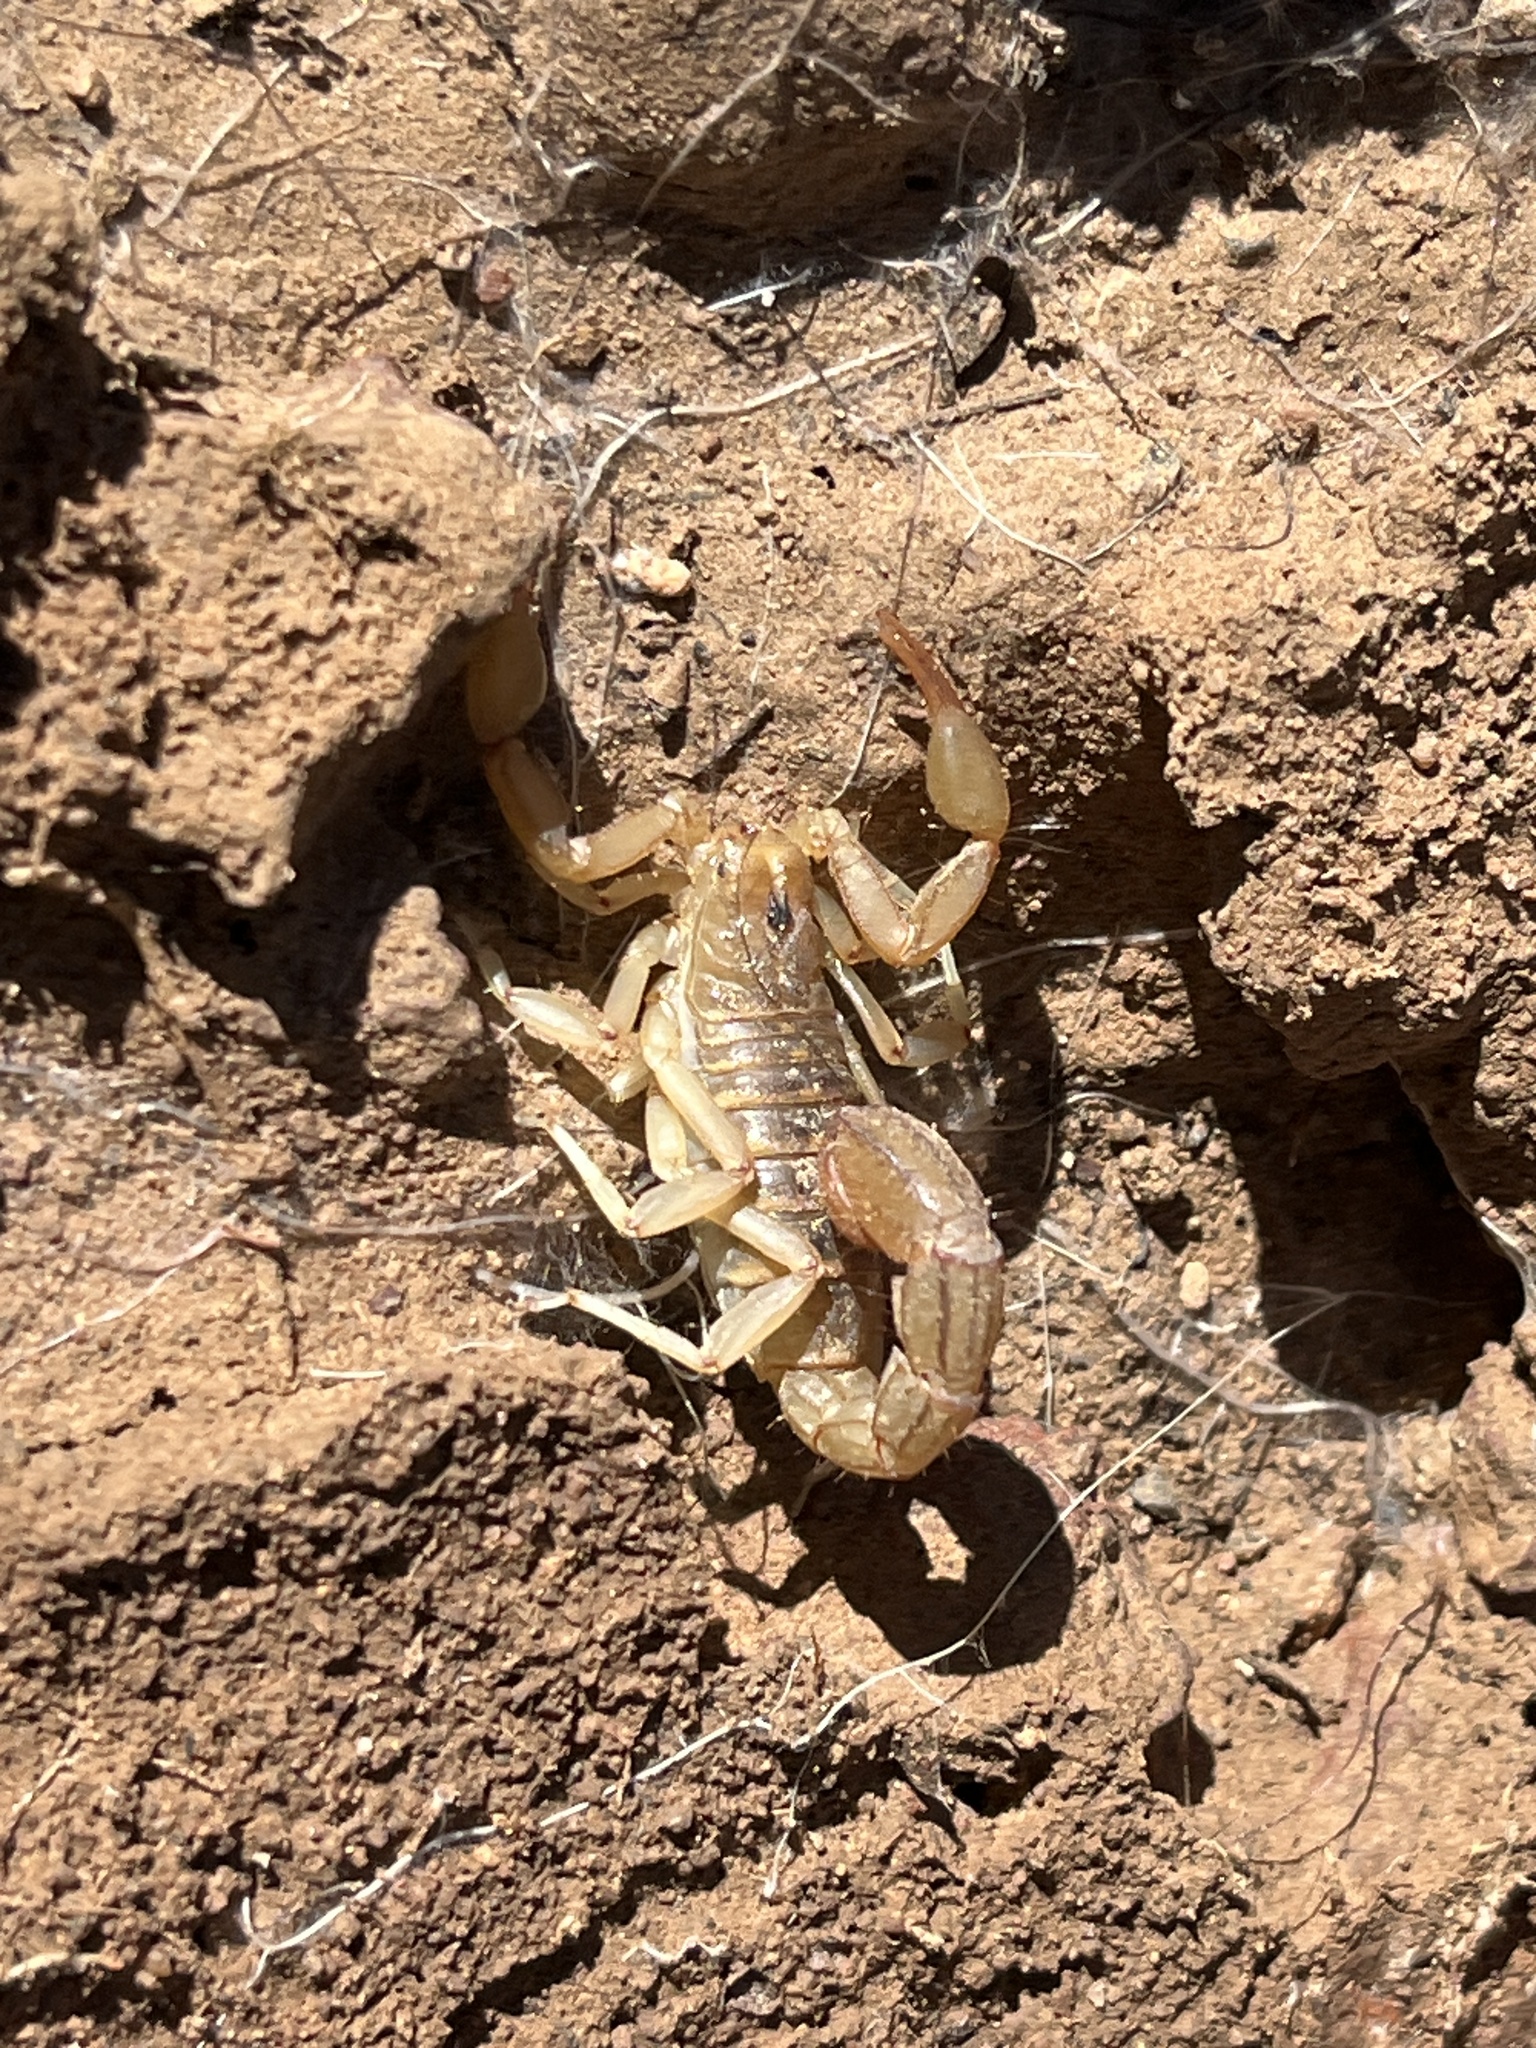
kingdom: Animalia
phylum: Arthropoda
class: Arachnida
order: Scorpiones
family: Vaejovidae
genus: Paravaejovis
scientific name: Paravaejovis spinigerus
